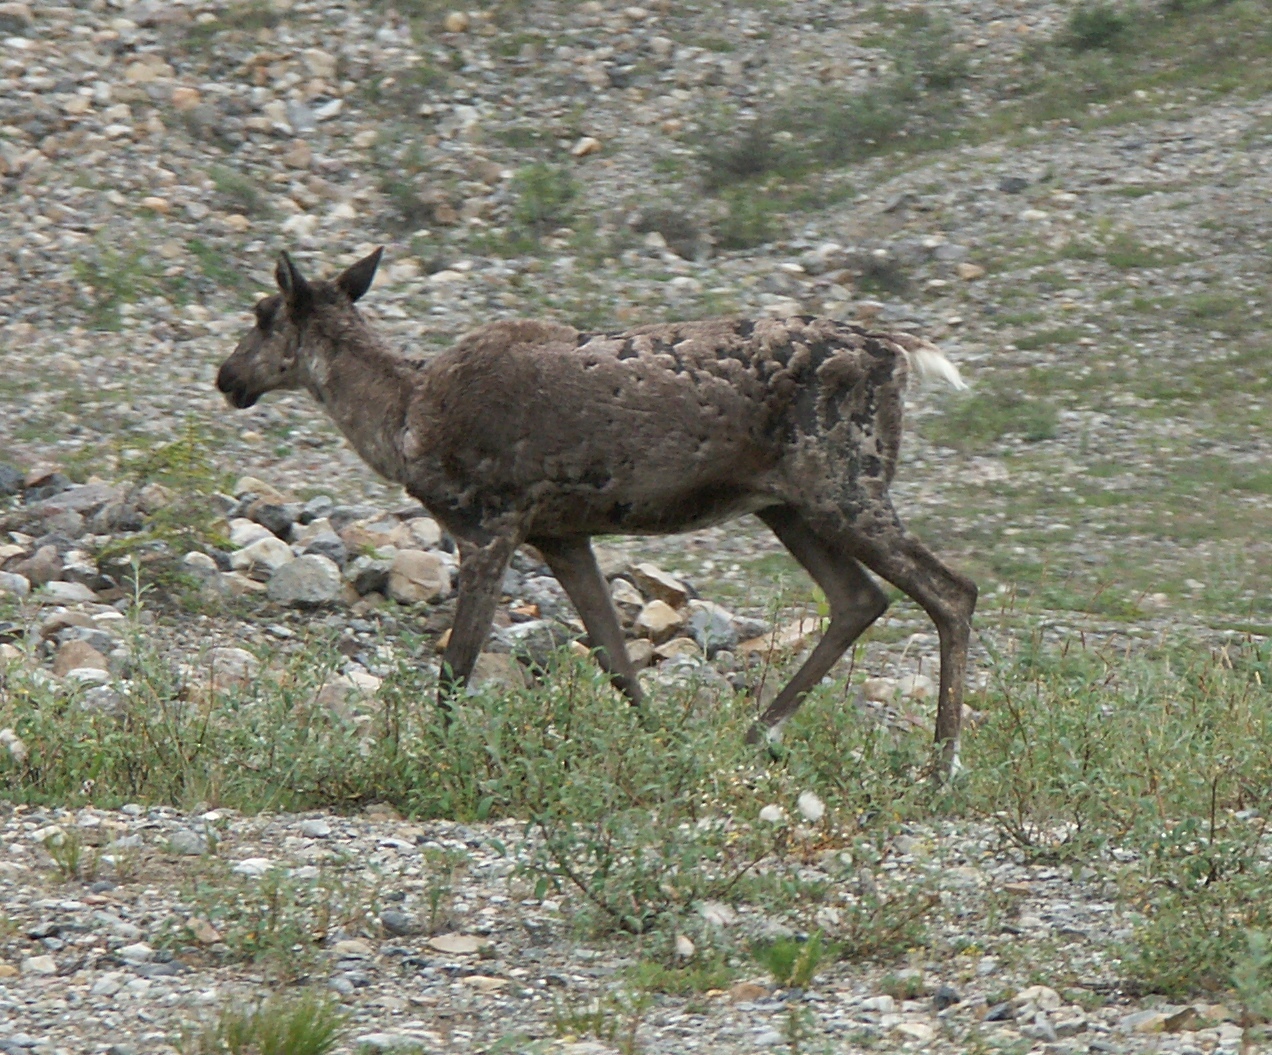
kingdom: Animalia
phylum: Chordata
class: Mammalia
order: Artiodactyla
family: Cervidae
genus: Rangifer
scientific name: Rangifer tarandus
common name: Reindeer
